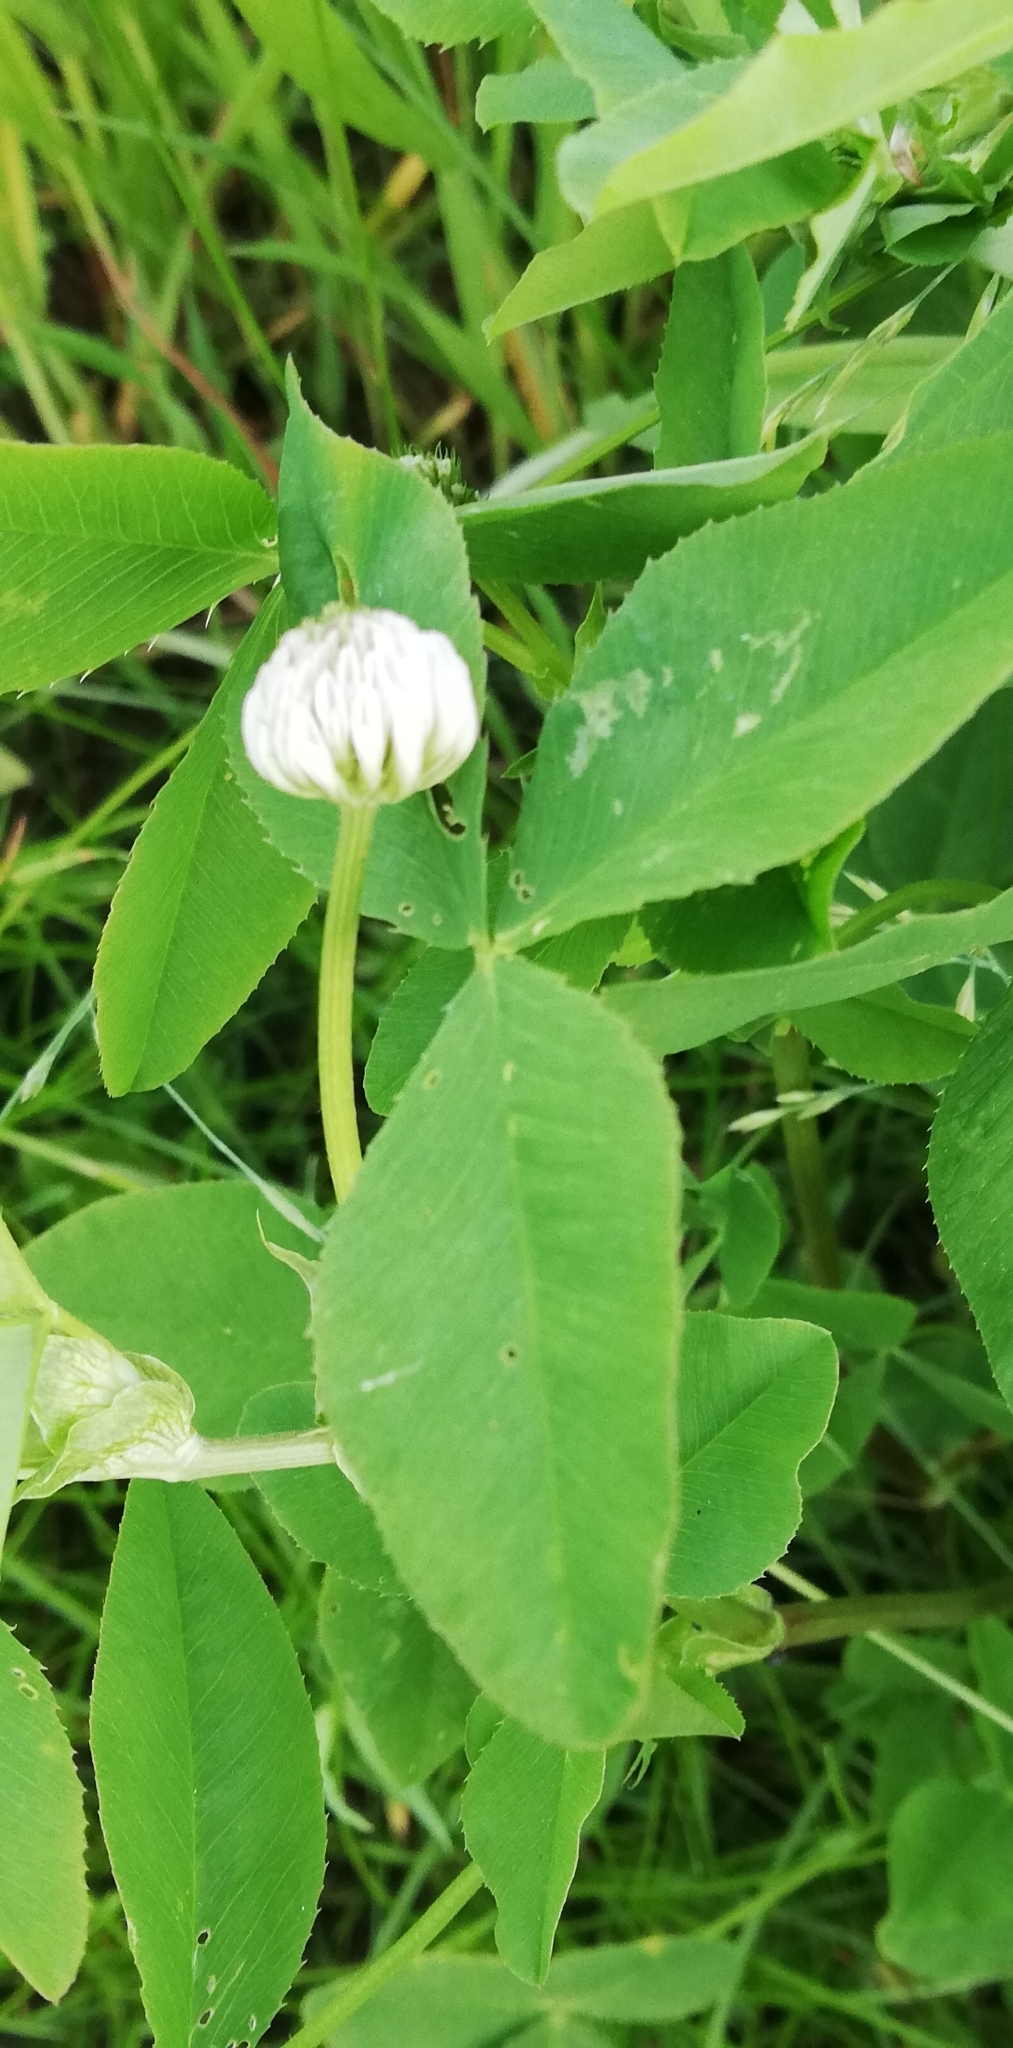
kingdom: Plantae
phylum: Tracheophyta
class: Magnoliopsida
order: Fabales
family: Fabaceae
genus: Trifolium
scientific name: Trifolium hybridum
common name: Alsike clover
